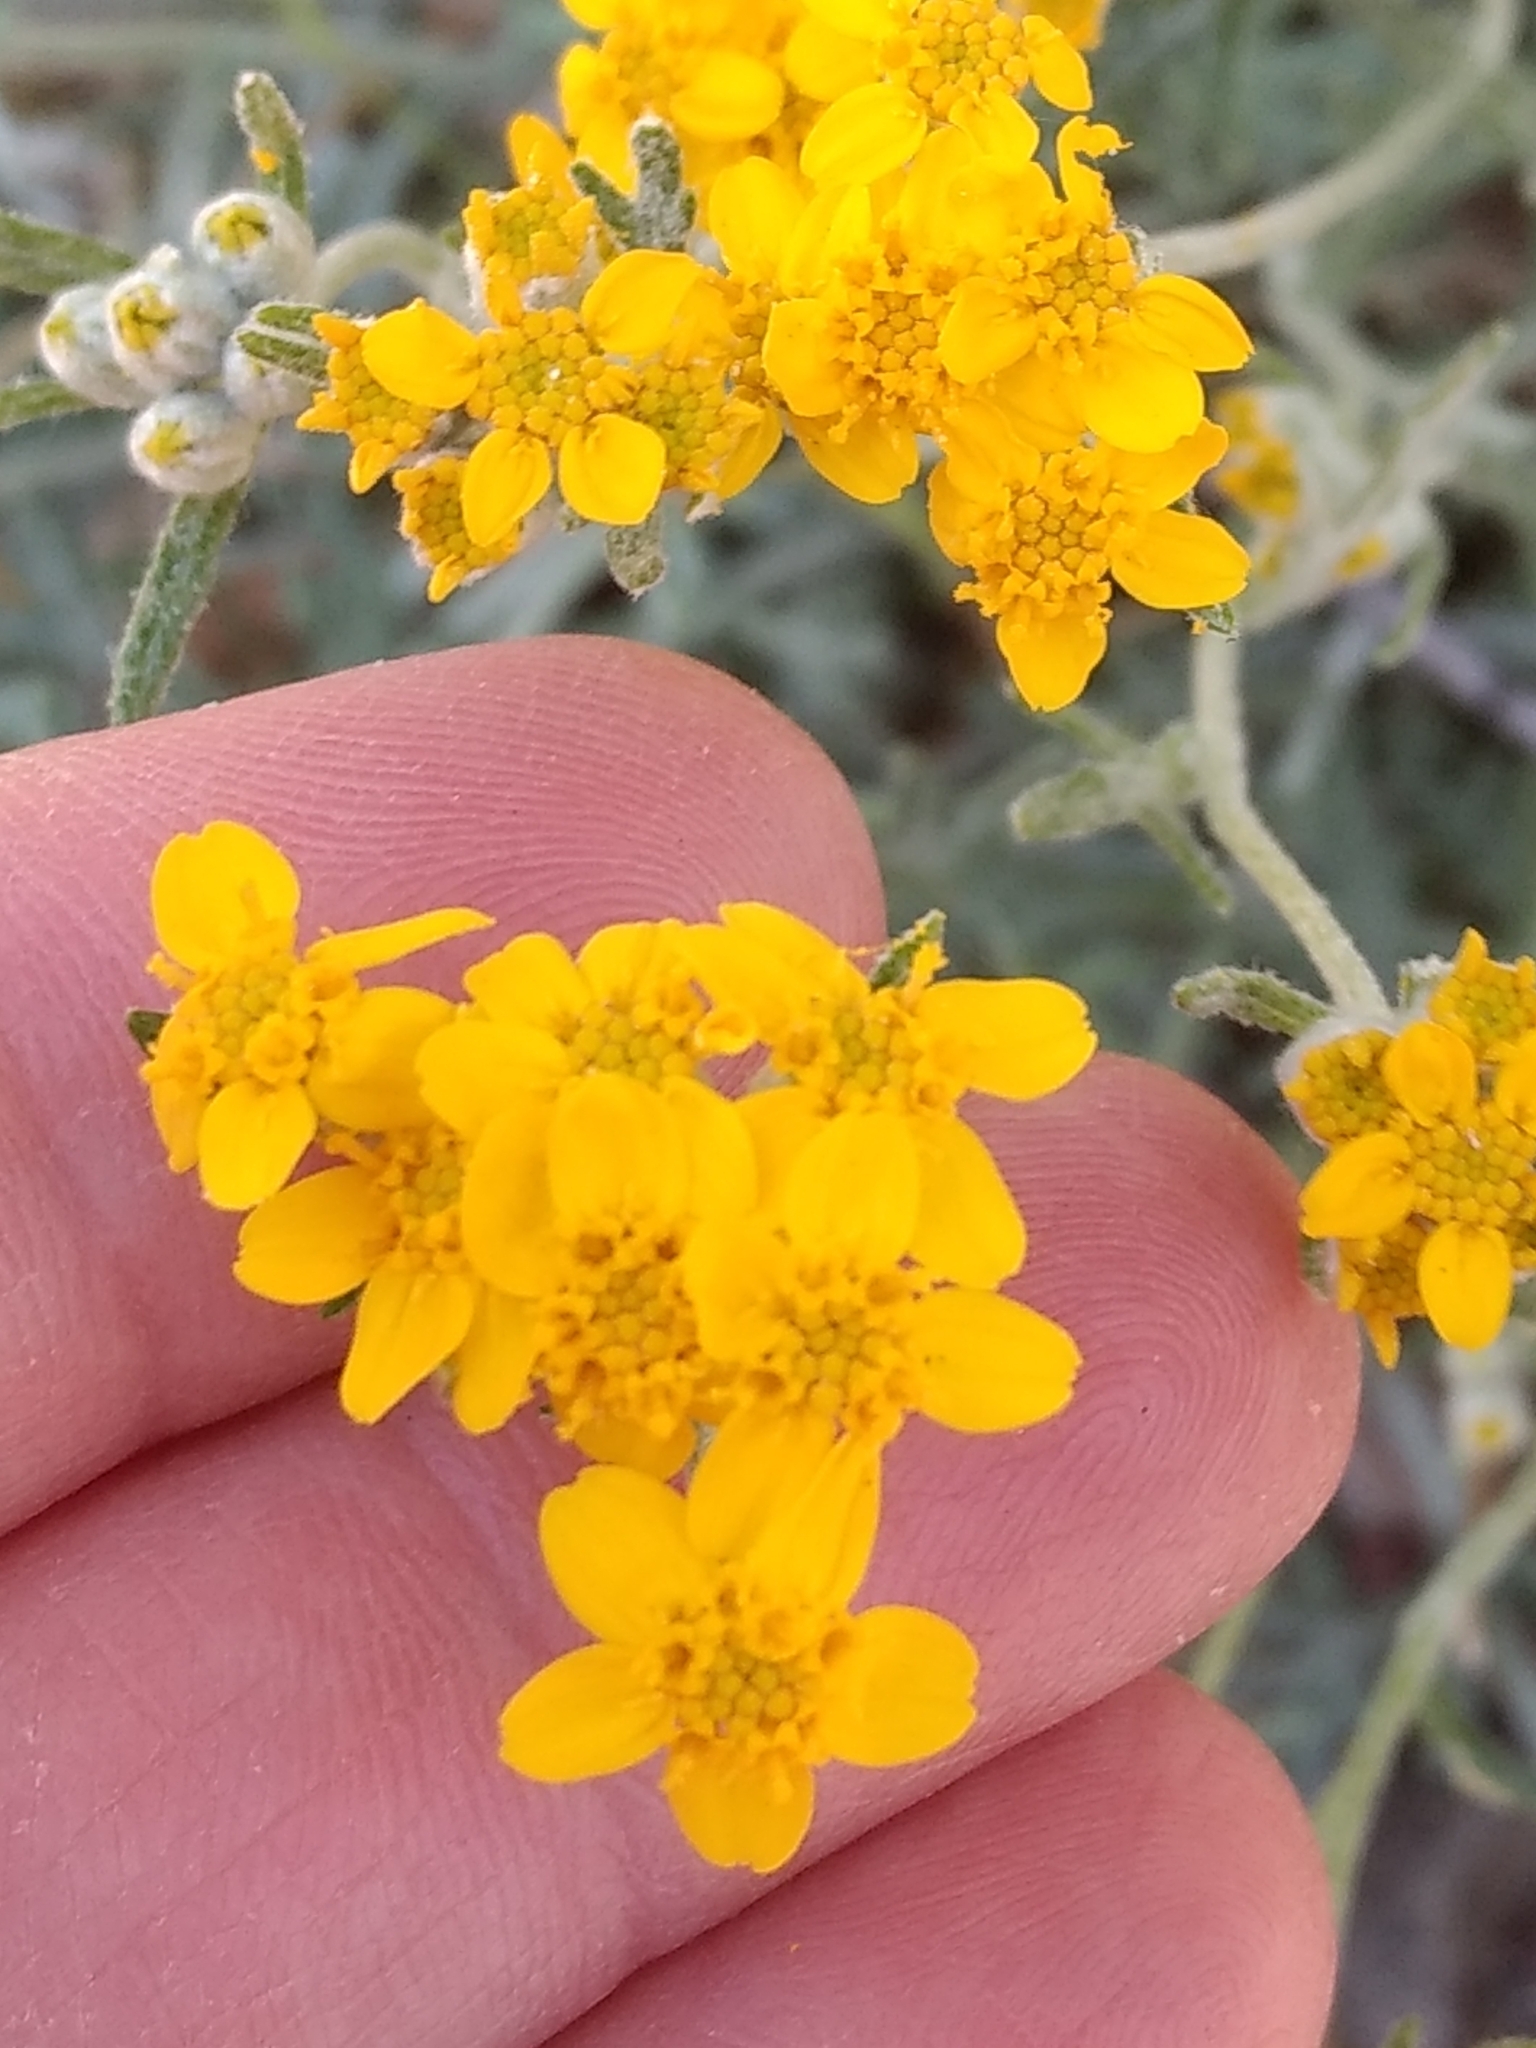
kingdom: Plantae
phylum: Tracheophyta
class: Magnoliopsida
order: Asterales
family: Asteraceae
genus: Eriophyllum
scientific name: Eriophyllum confertiflorum
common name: Golden-yarrow
